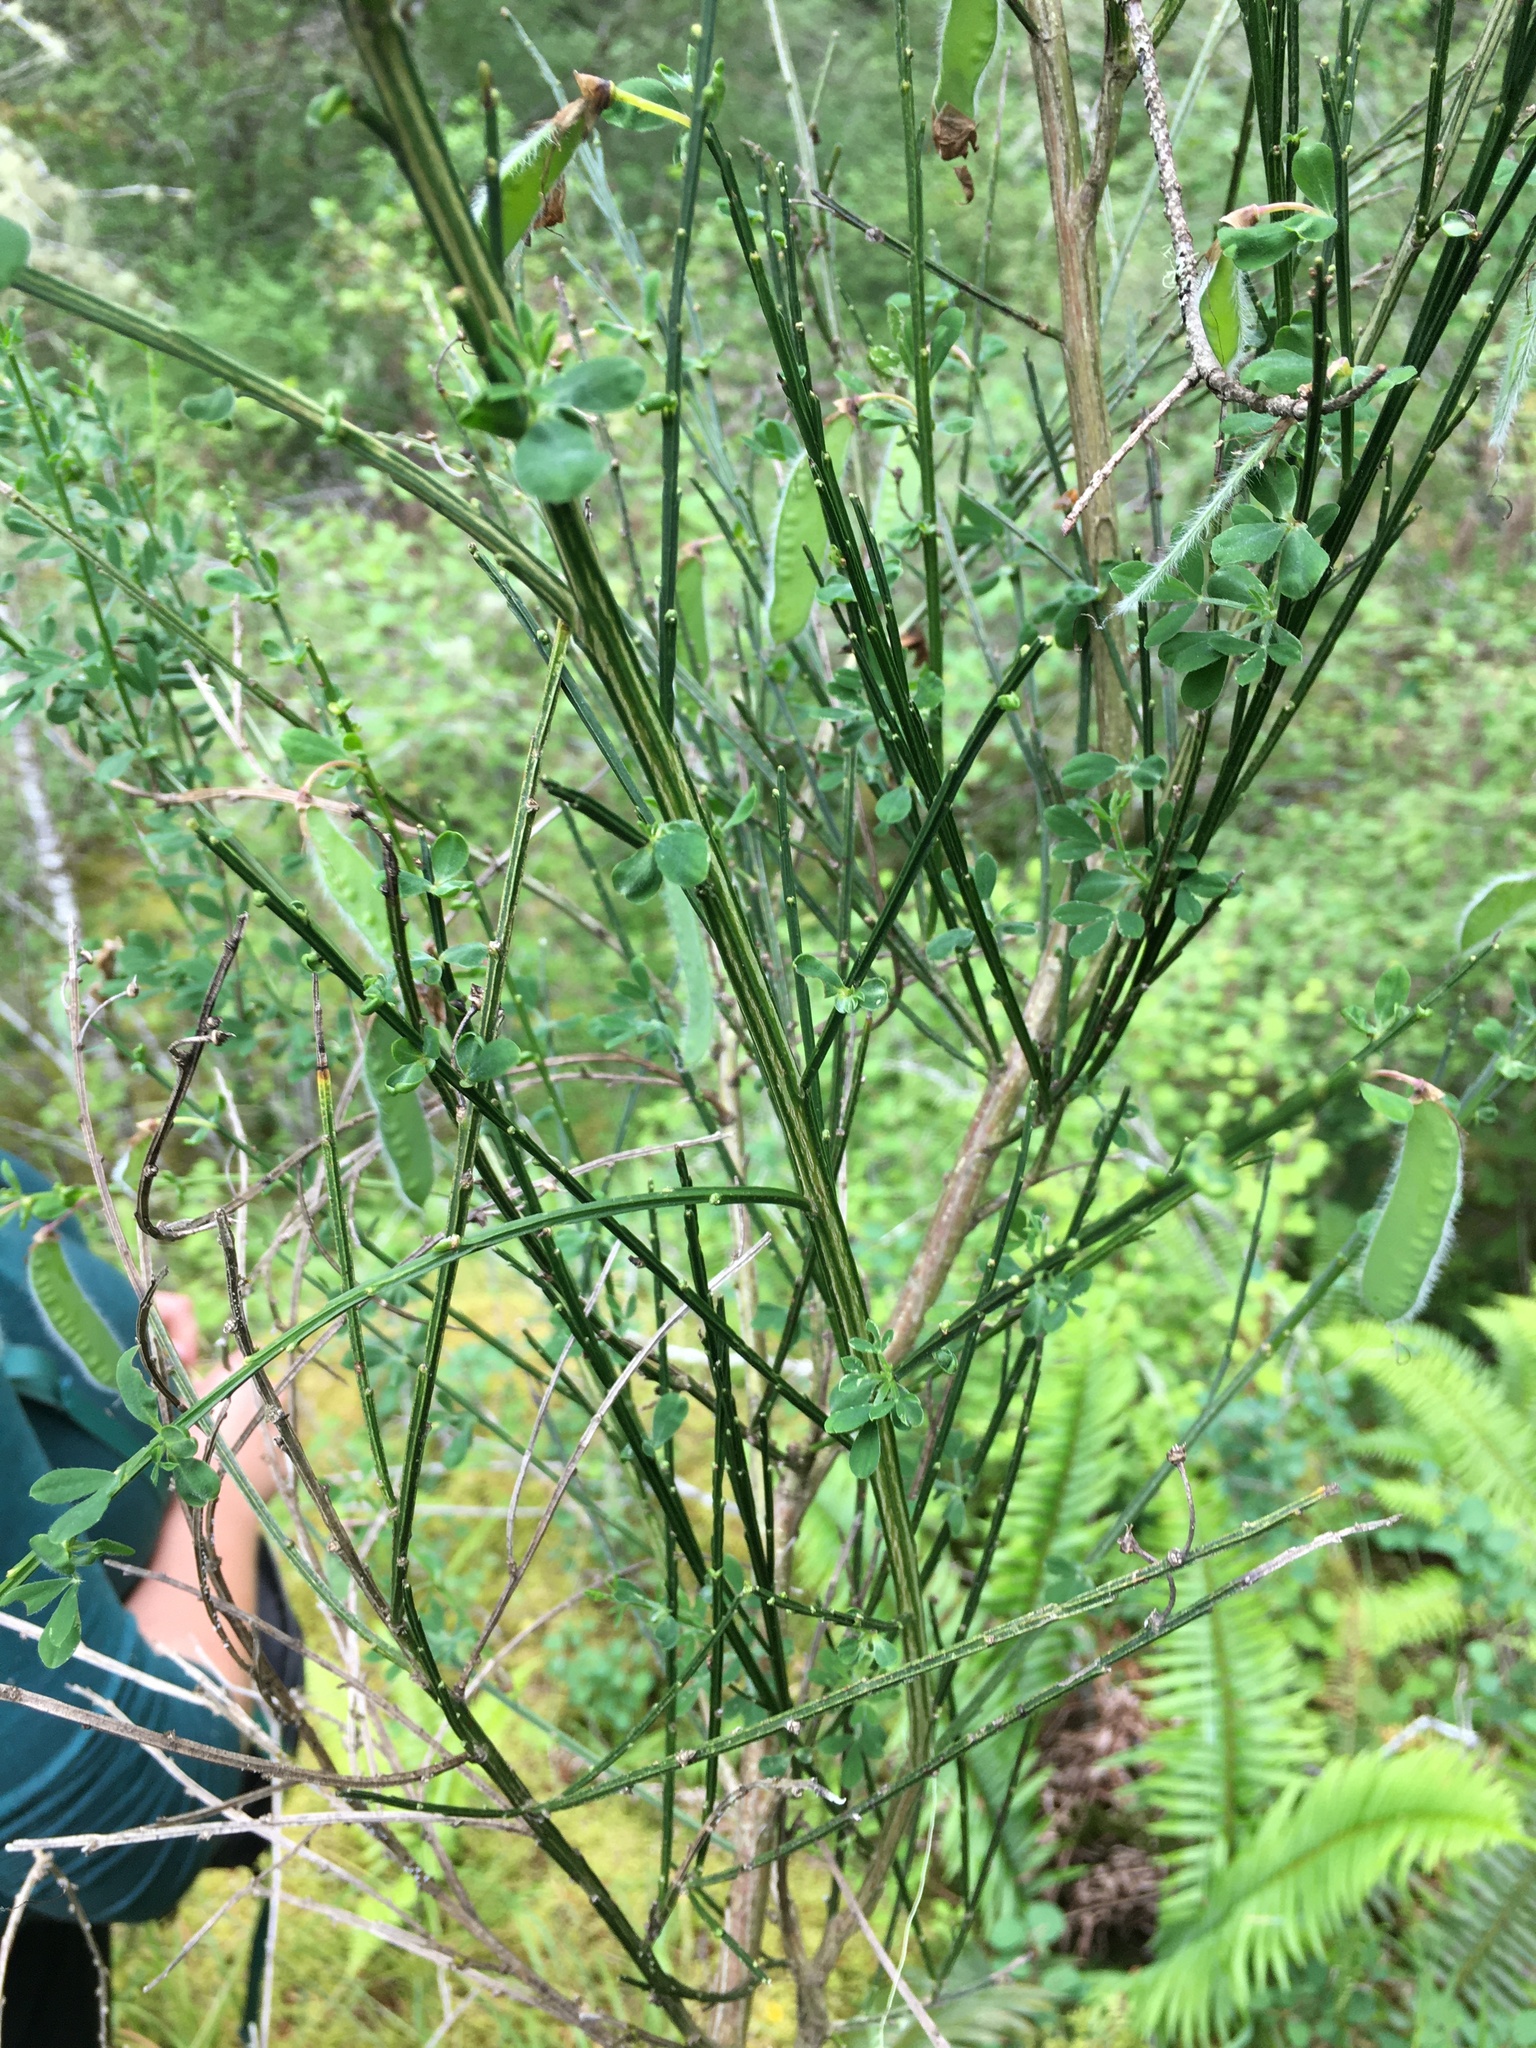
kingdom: Plantae
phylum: Tracheophyta
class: Magnoliopsida
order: Fabales
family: Fabaceae
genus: Cytisus
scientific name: Cytisus scoparius
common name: Scotch broom
